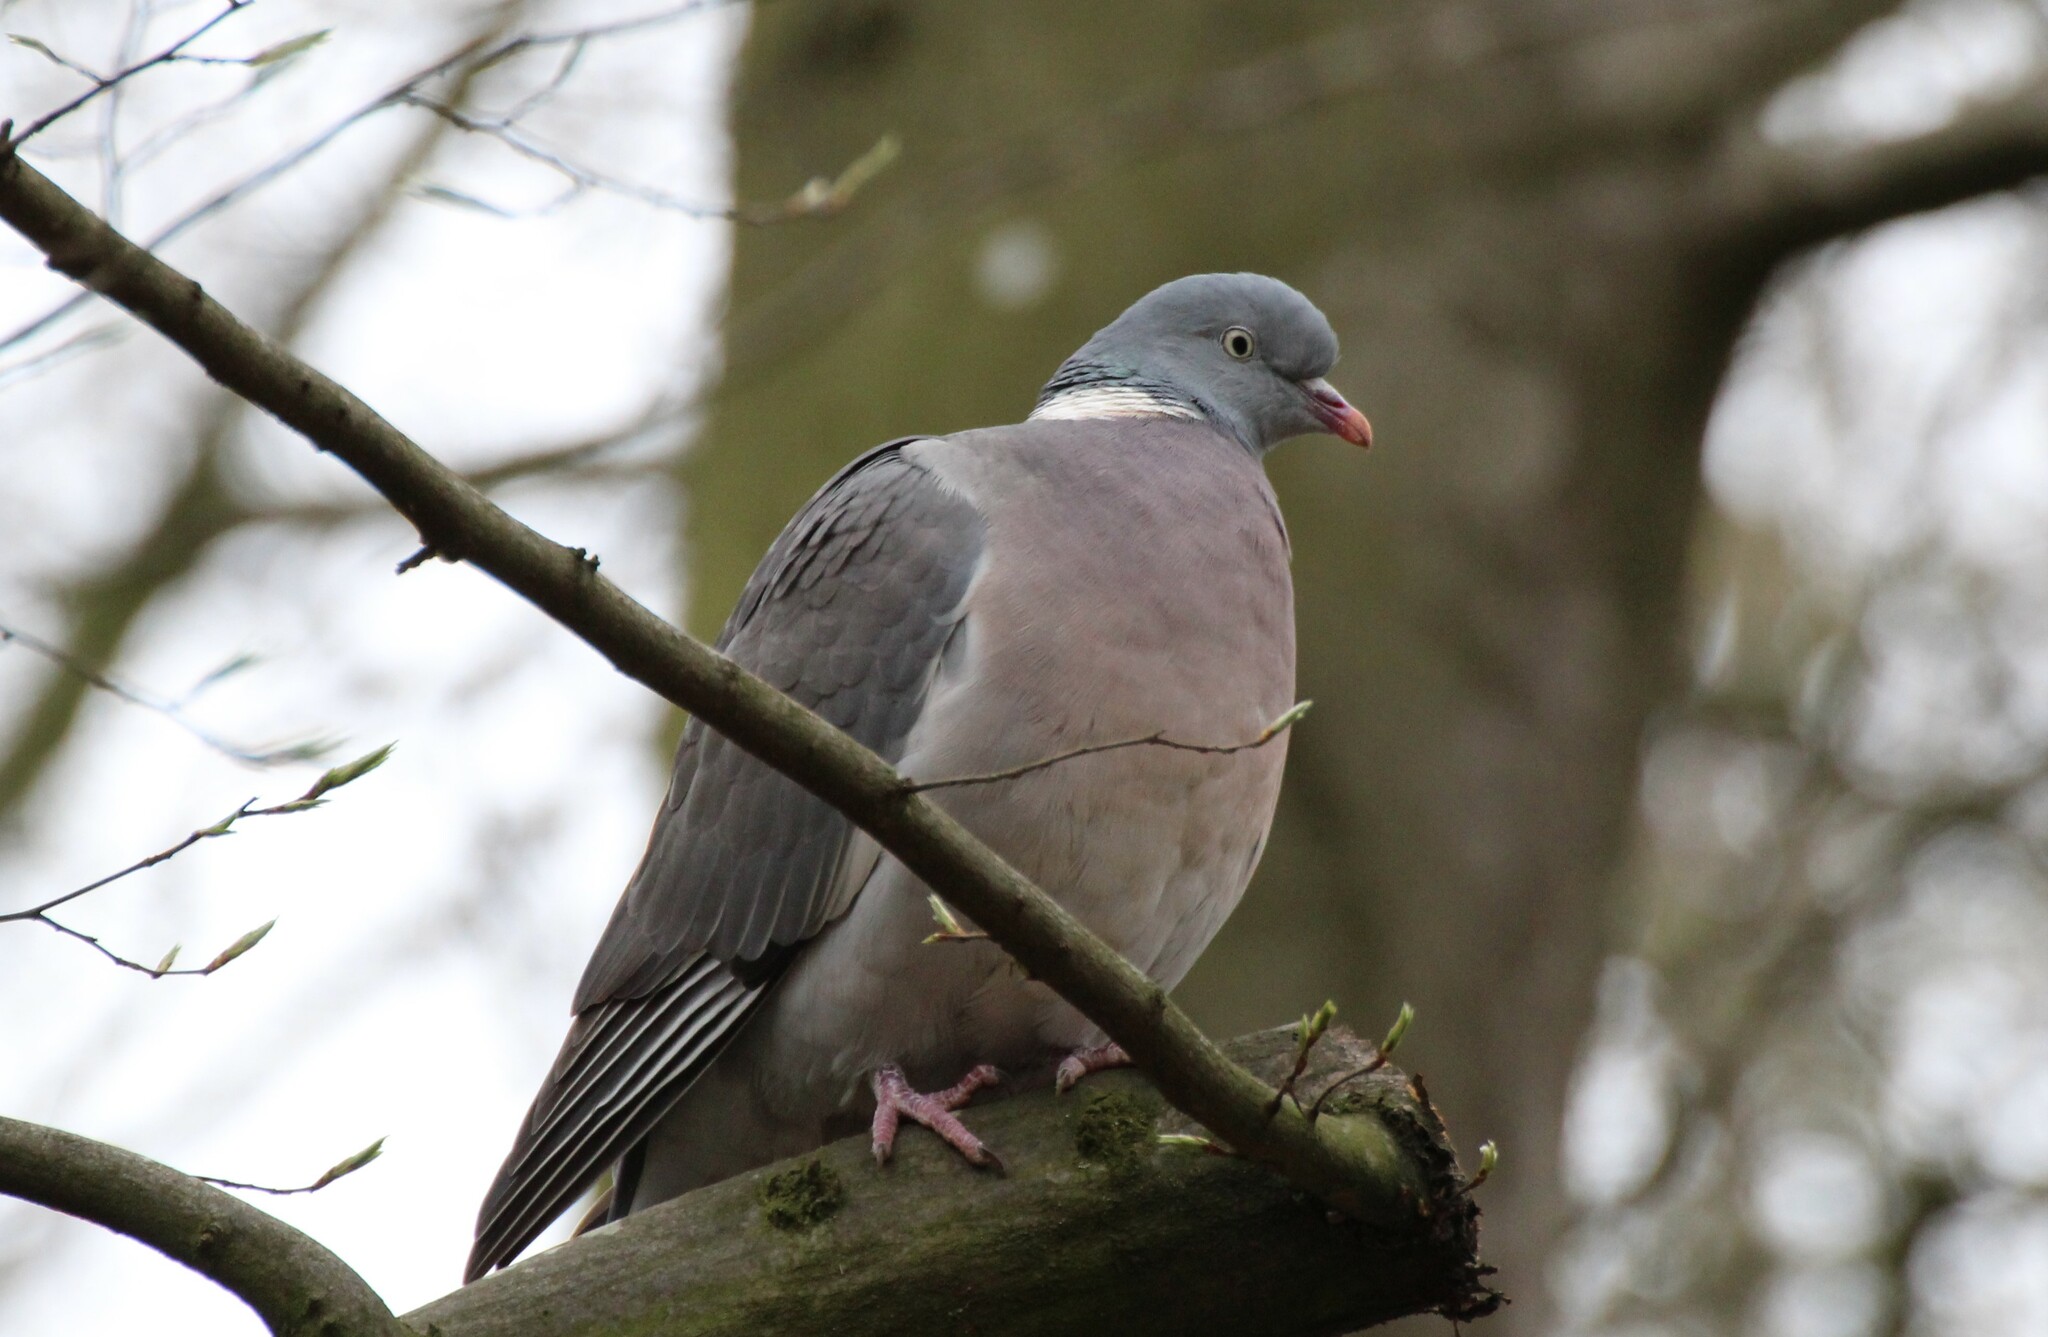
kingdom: Animalia
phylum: Chordata
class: Aves
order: Columbiformes
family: Columbidae
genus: Columba
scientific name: Columba palumbus
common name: Common wood pigeon
